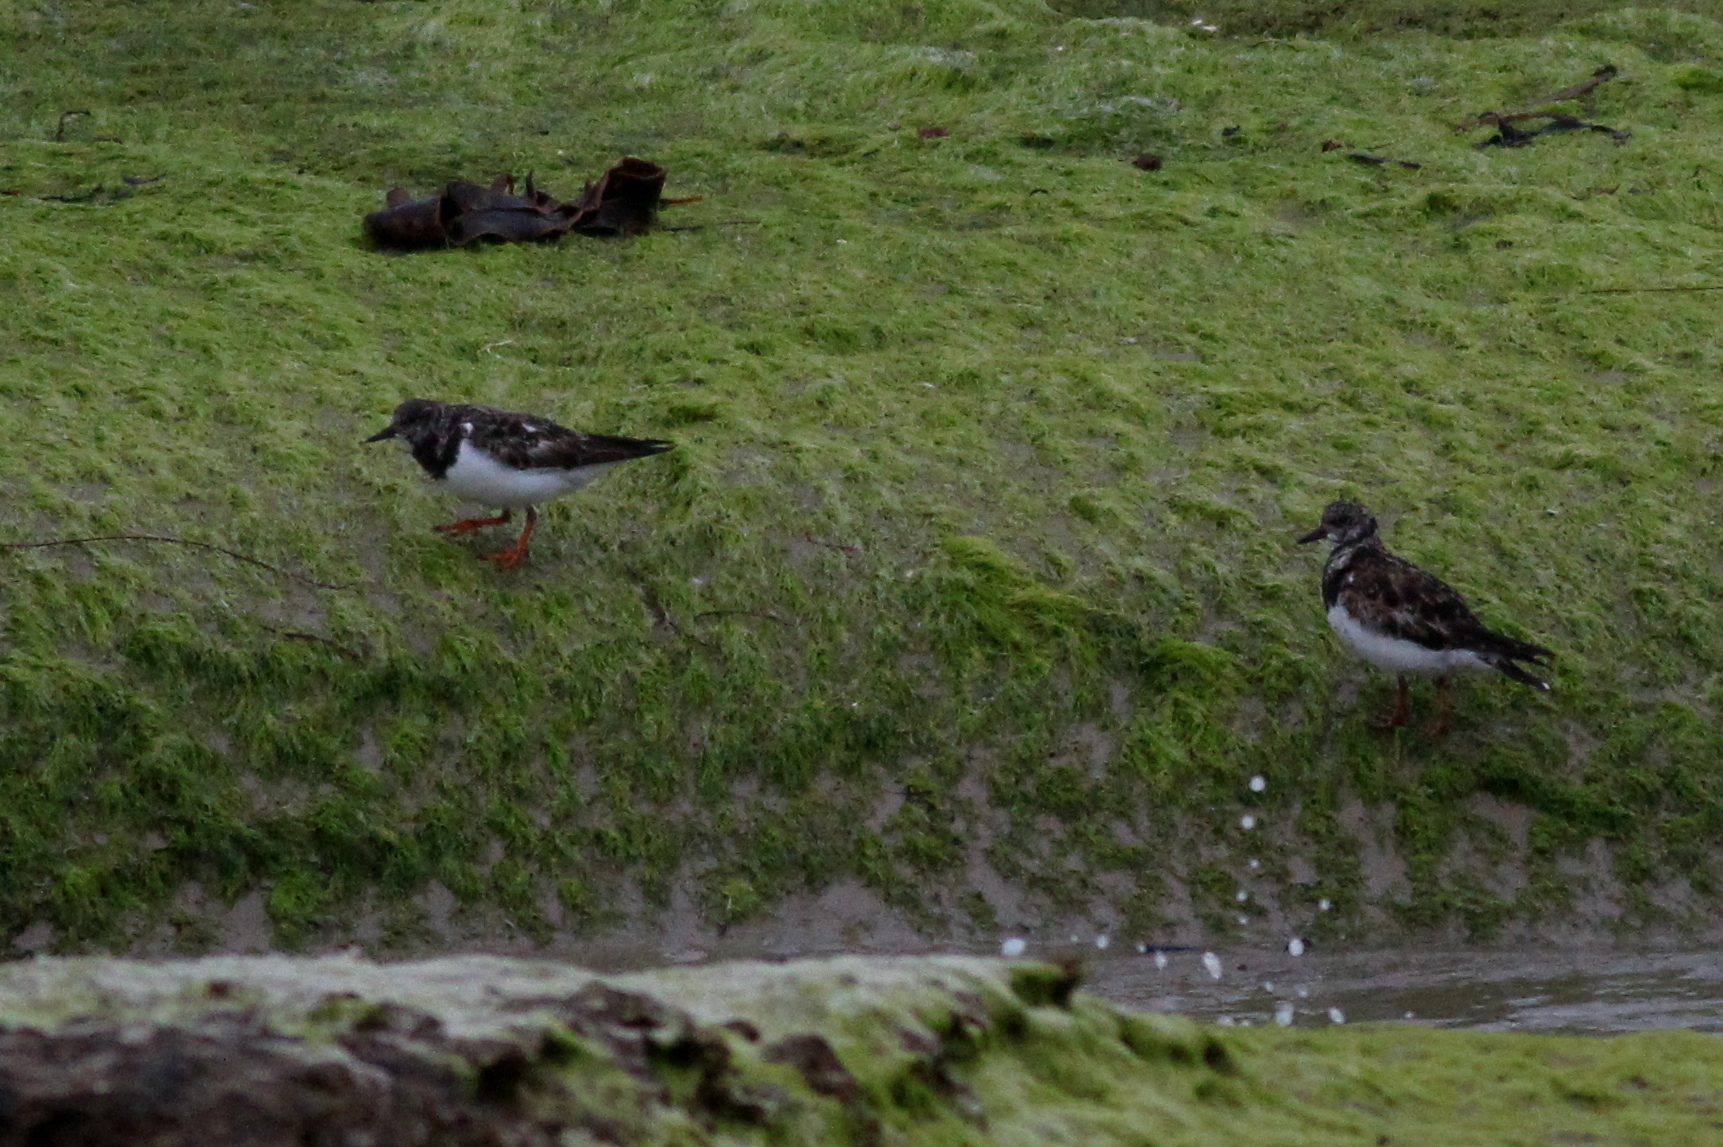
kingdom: Animalia
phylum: Chordata
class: Aves
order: Charadriiformes
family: Scolopacidae
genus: Arenaria
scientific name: Arenaria interpres
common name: Ruddy turnstone
